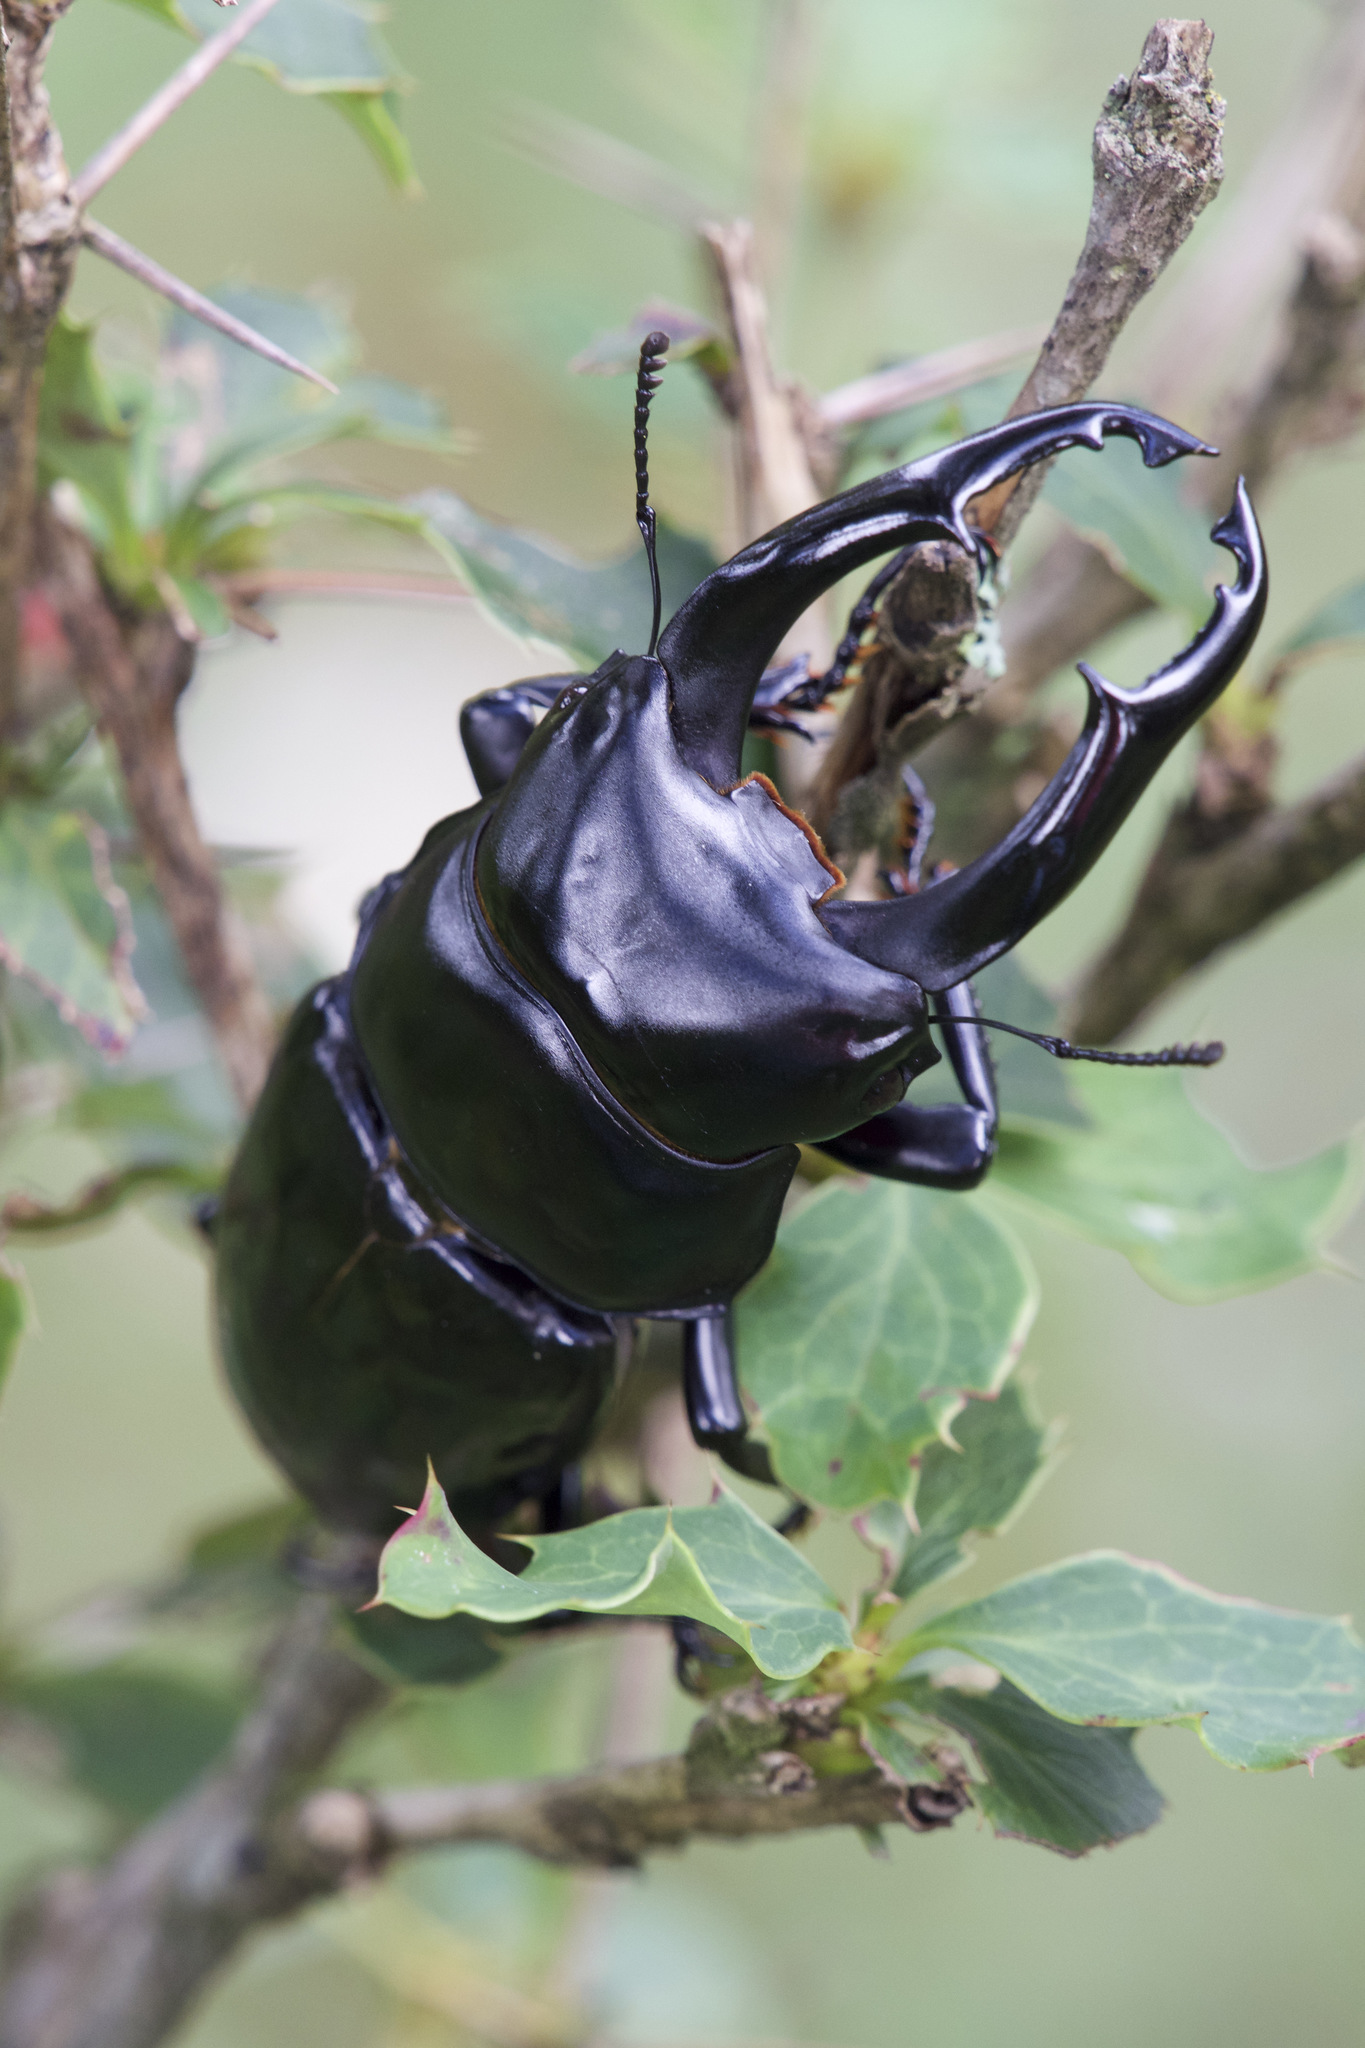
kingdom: Animalia
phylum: Arthropoda
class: Insecta
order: Coleoptera
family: Lucanidae
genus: Dorcus
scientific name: Dorcus nepalensis
